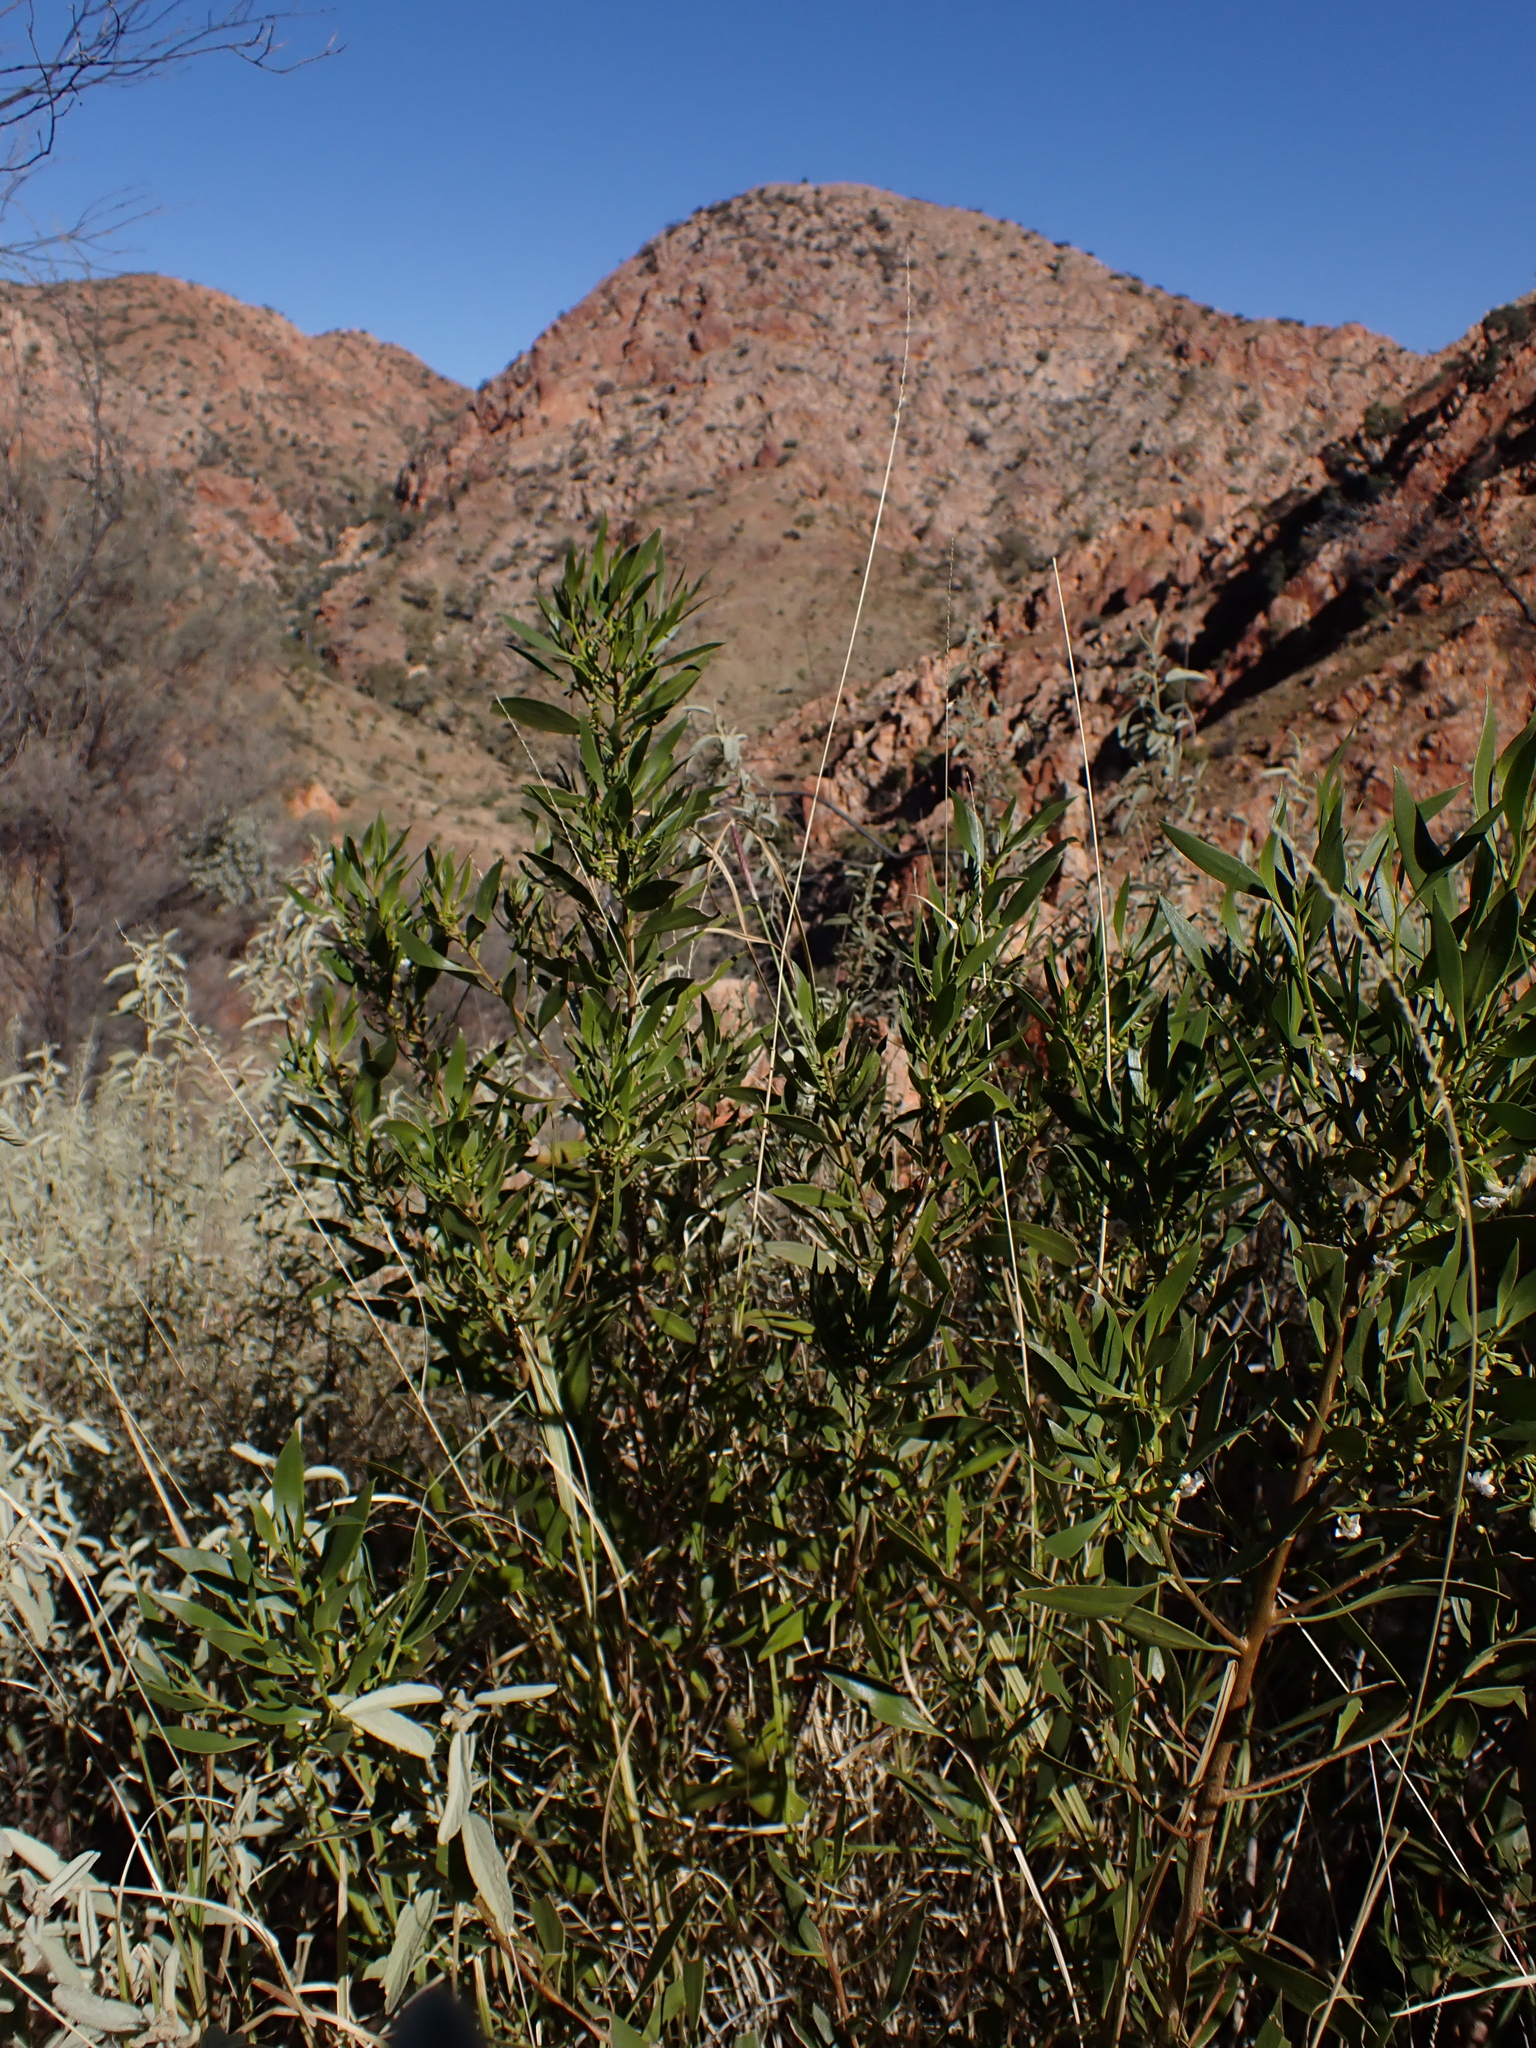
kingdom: Plantae
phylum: Tracheophyta
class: Magnoliopsida
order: Lamiales
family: Scrophulariaceae
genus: Myoporum
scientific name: Myoporum montanum
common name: Waterbush
